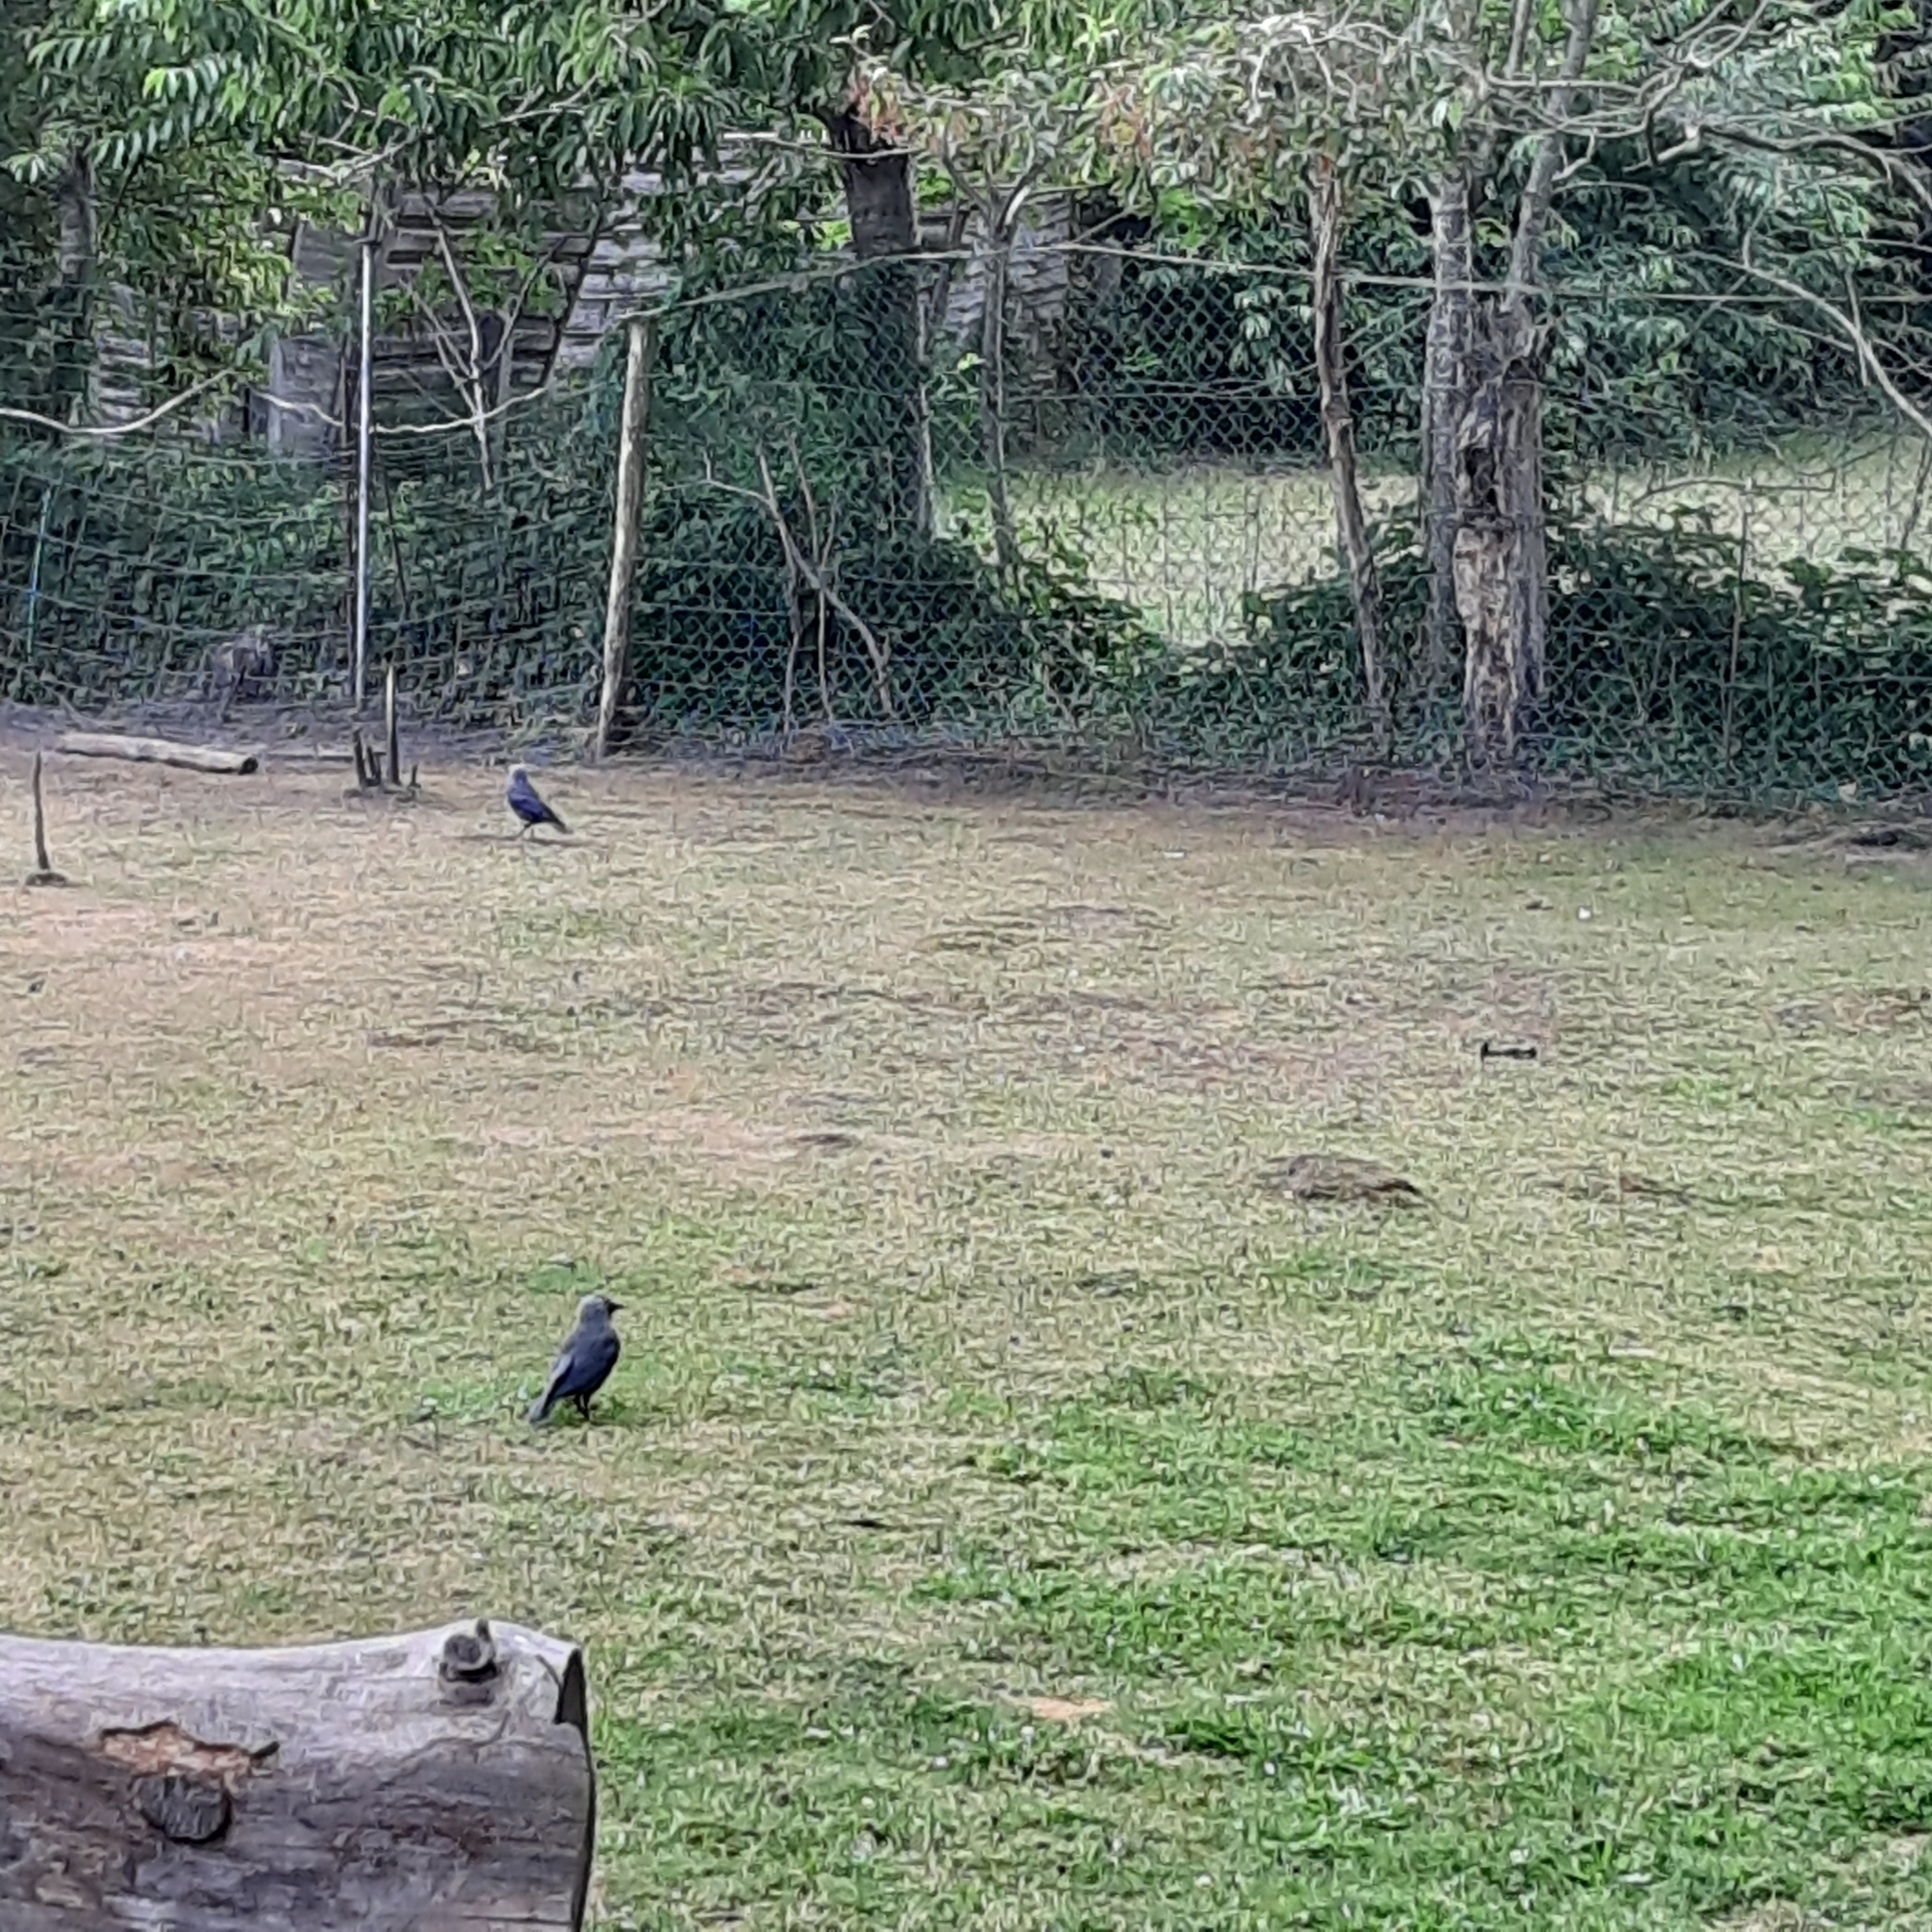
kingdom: Animalia
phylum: Chordata
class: Aves
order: Passeriformes
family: Corvidae
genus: Coloeus
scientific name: Coloeus monedula
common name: Western jackdaw
